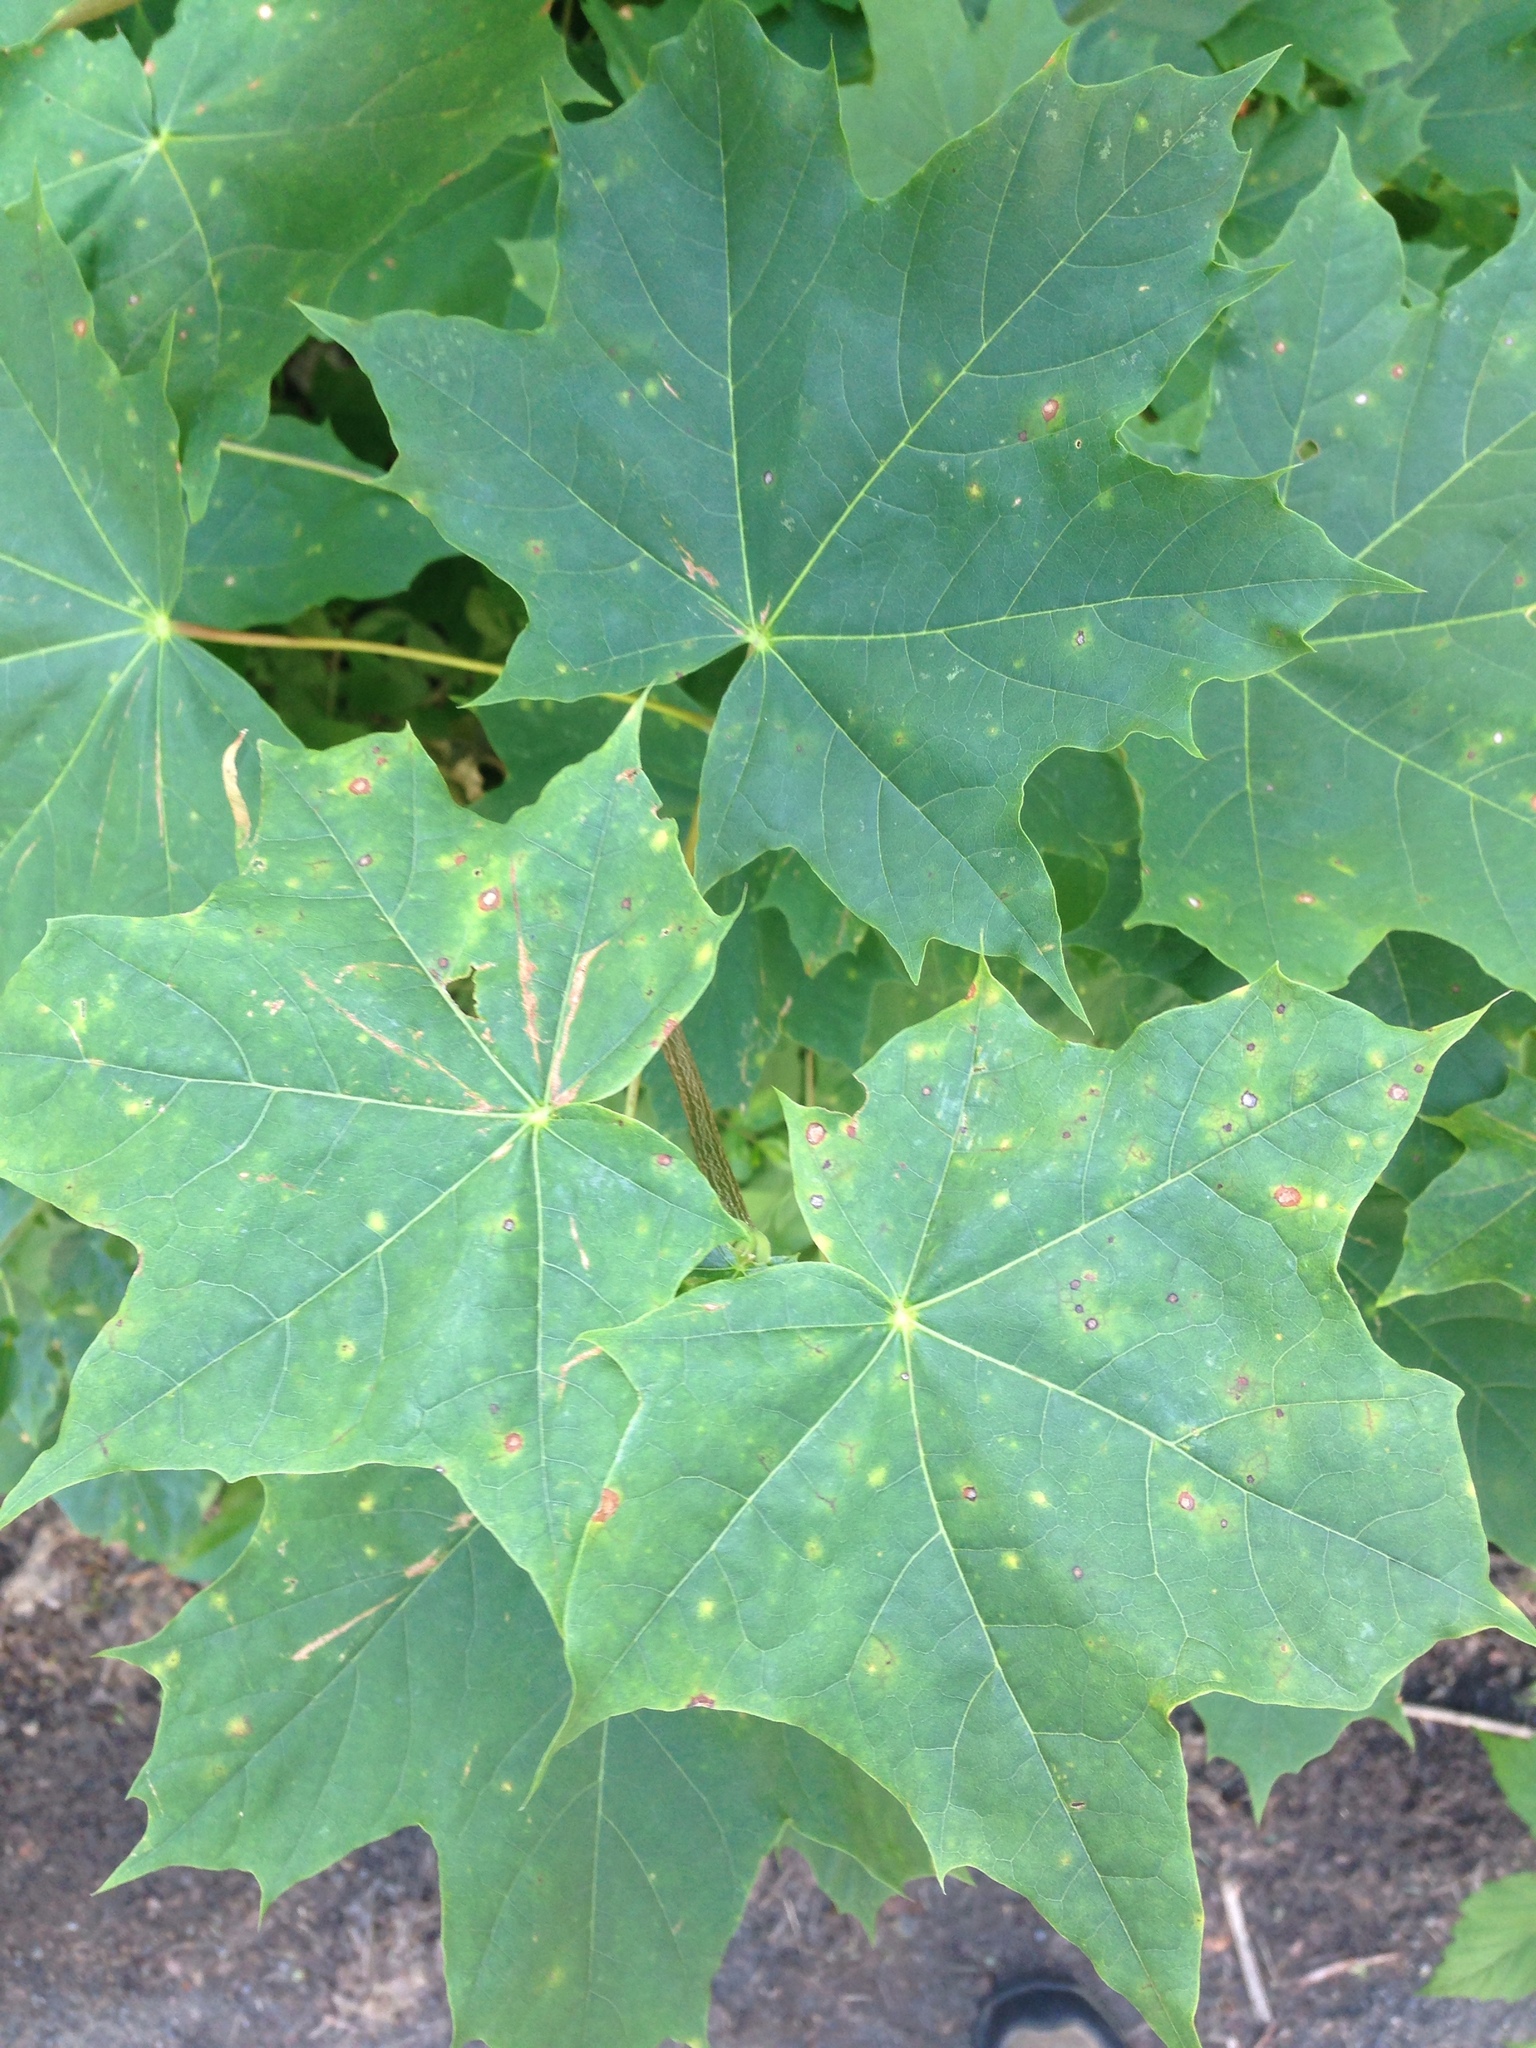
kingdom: Plantae
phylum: Tracheophyta
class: Magnoliopsida
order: Sapindales
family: Sapindaceae
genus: Acer
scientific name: Acer platanoides
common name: Norway maple
